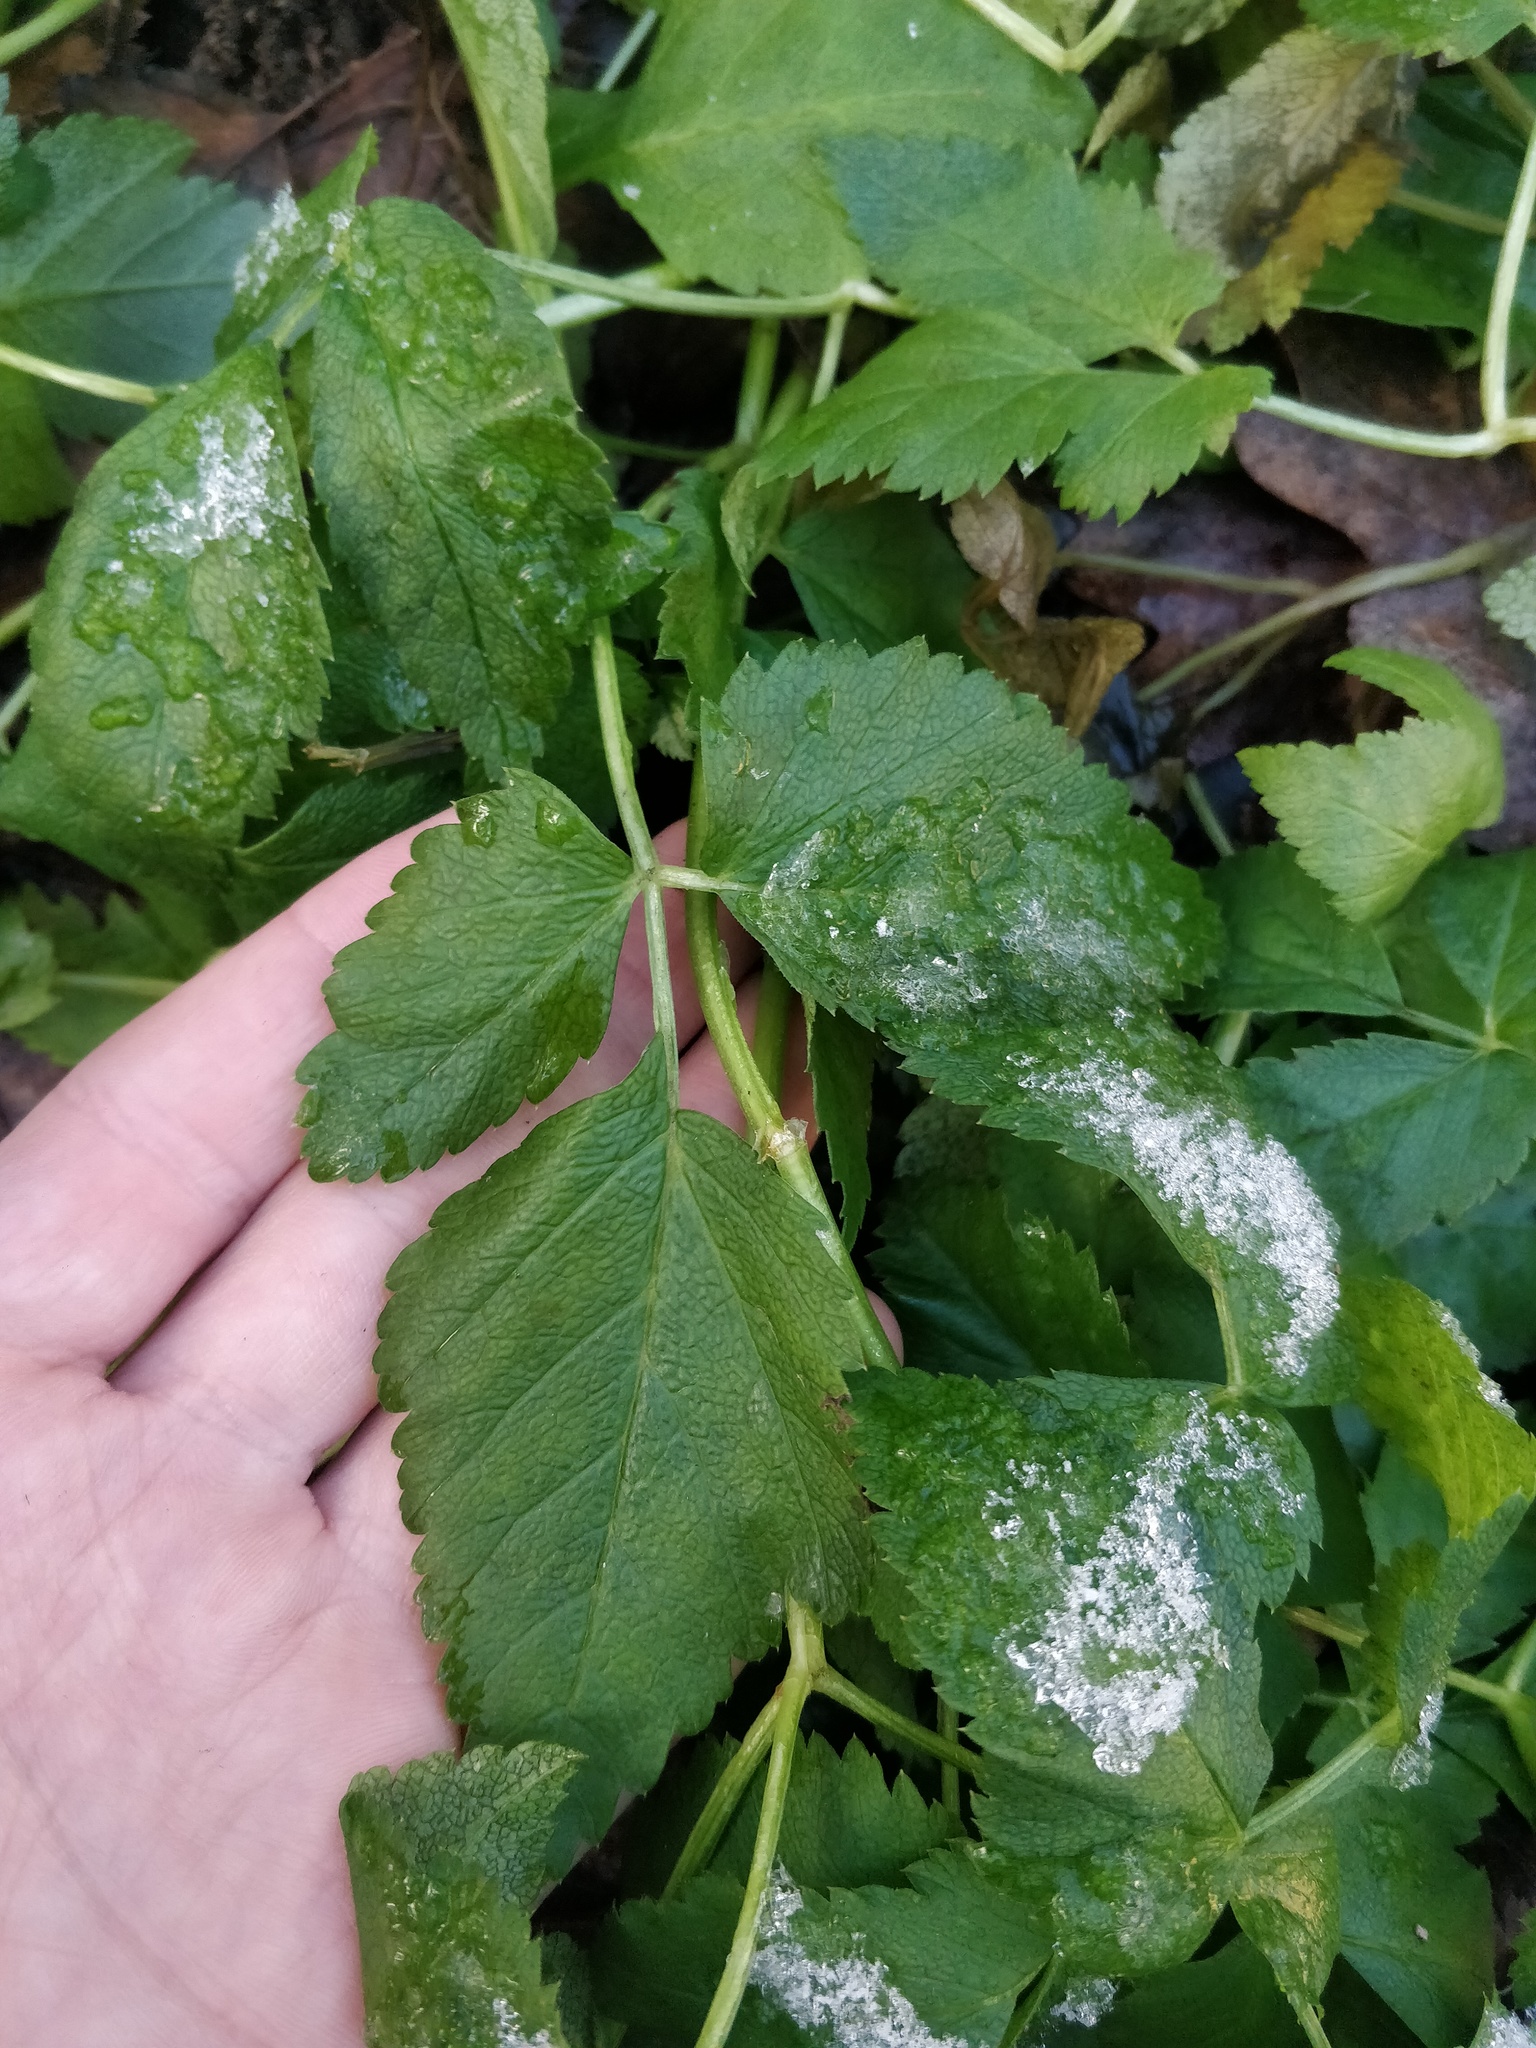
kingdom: Plantae
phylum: Tracheophyta
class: Magnoliopsida
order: Apiales
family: Apiaceae
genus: Aegopodium
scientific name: Aegopodium podagraria
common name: Ground-elder
